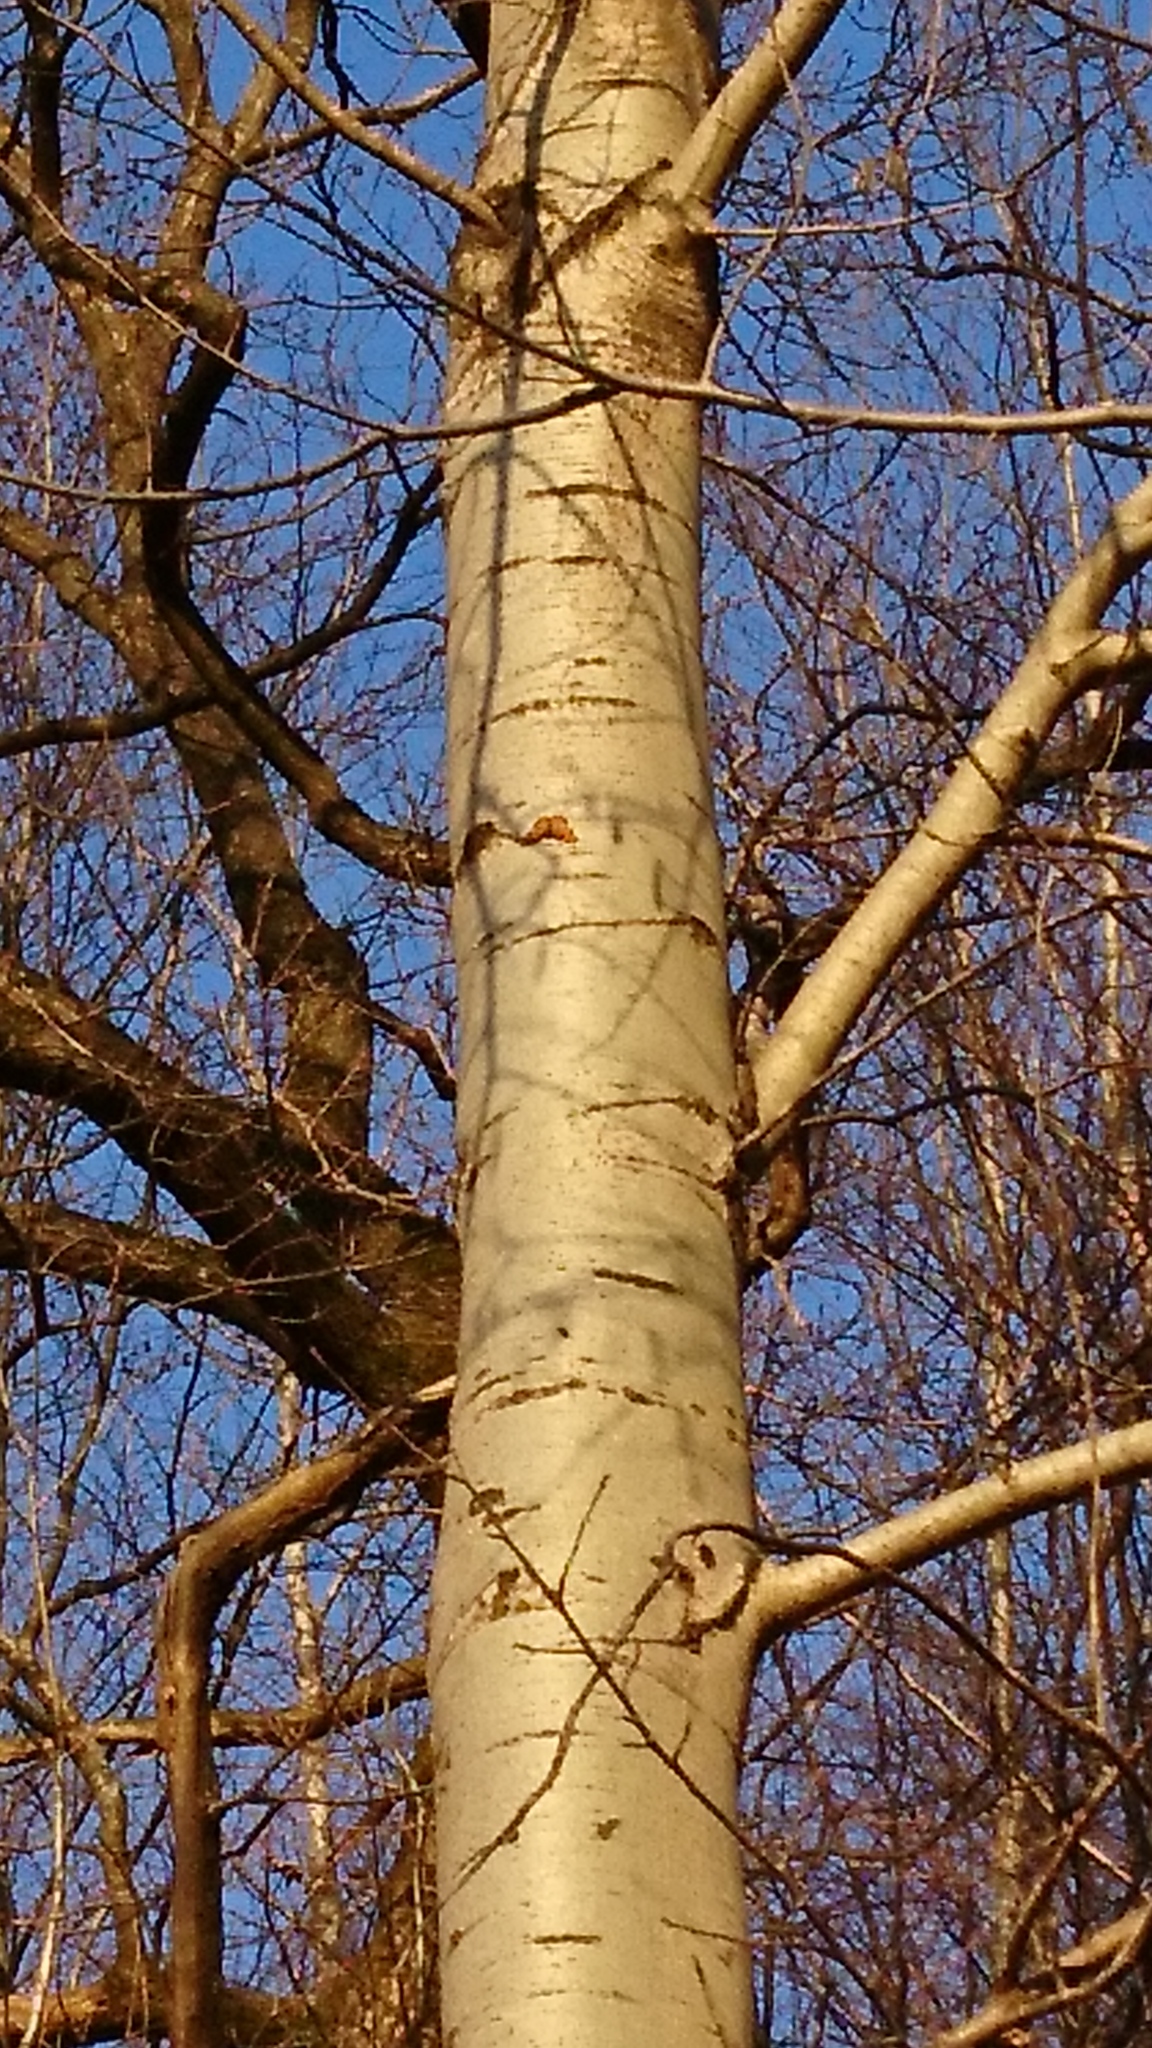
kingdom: Animalia
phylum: Arthropoda
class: Insecta
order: Lepidoptera
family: Nymphalidae
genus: Nymphalis
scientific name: Nymphalis polychloros
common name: Large tortoiseshell
